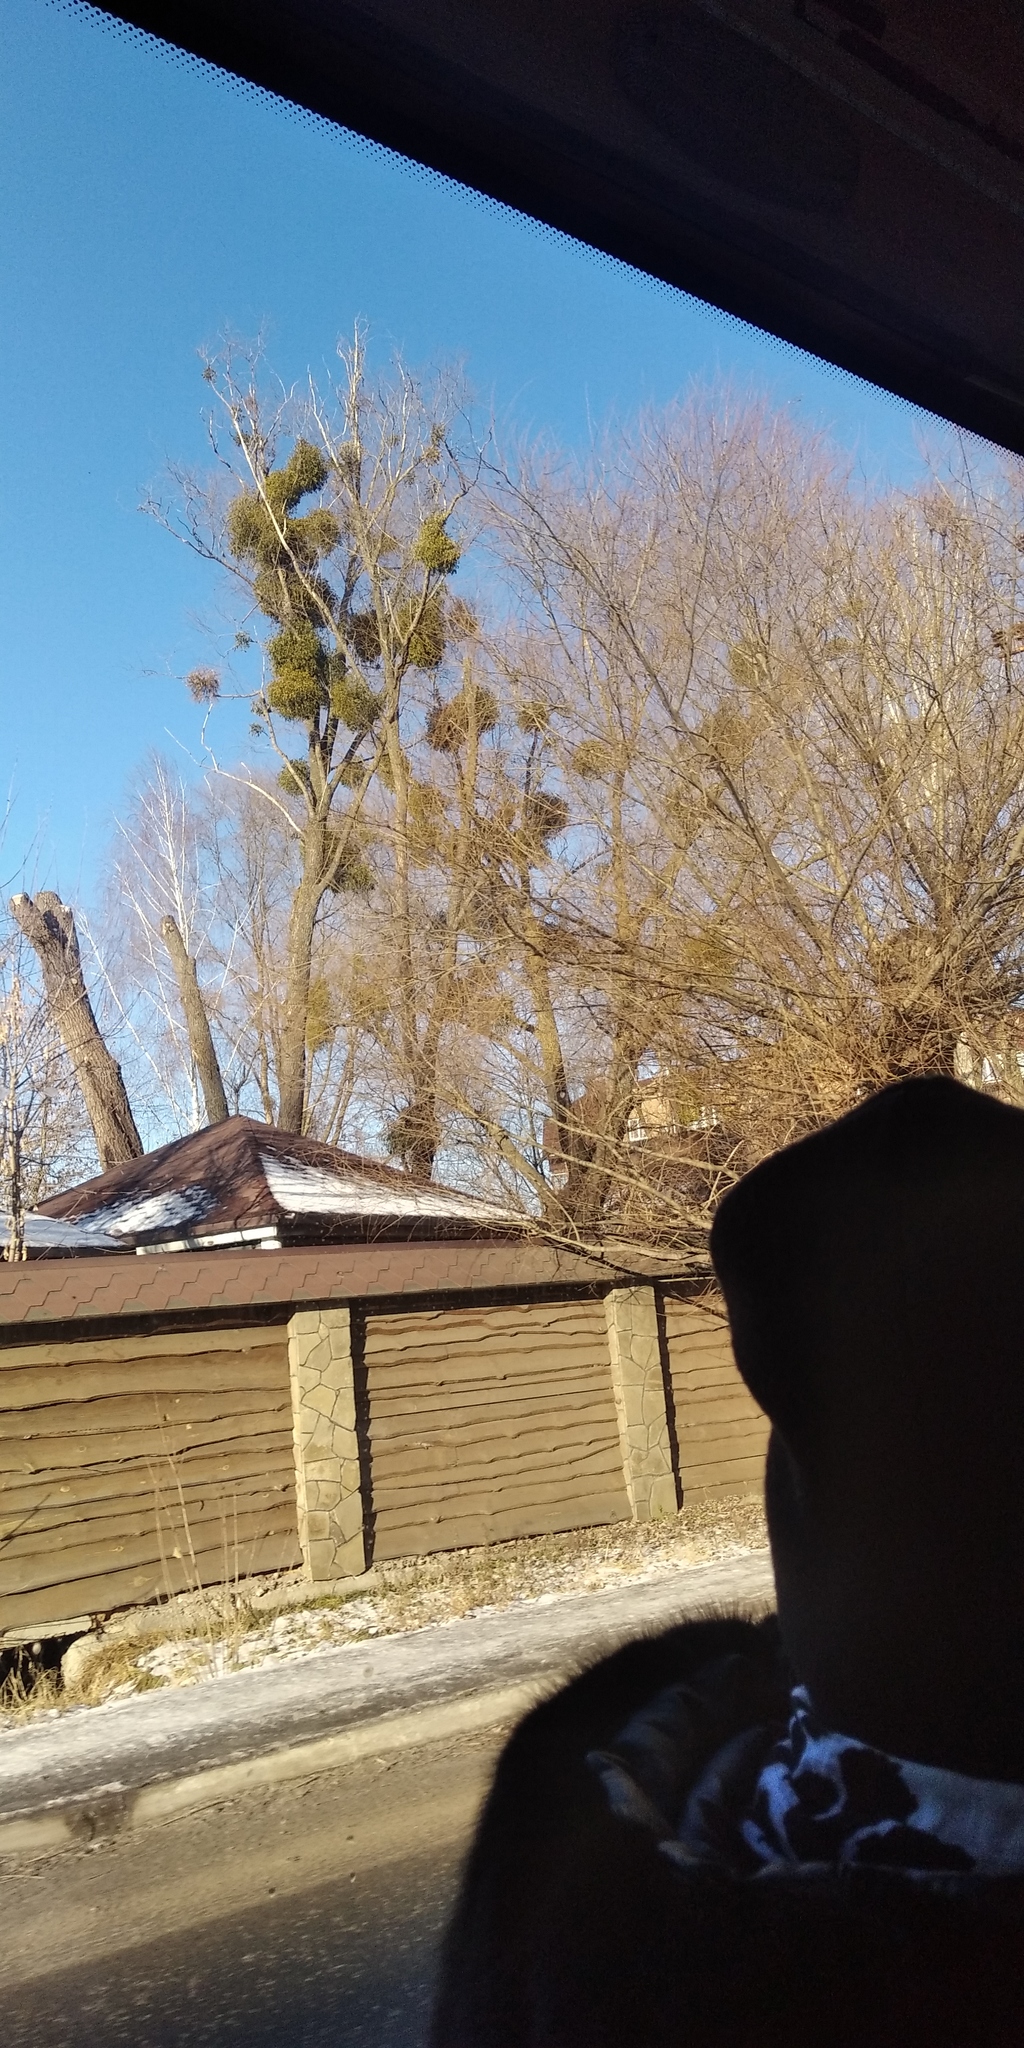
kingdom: Plantae
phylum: Tracheophyta
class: Magnoliopsida
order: Santalales
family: Viscaceae
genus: Viscum
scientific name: Viscum album
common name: Mistletoe
